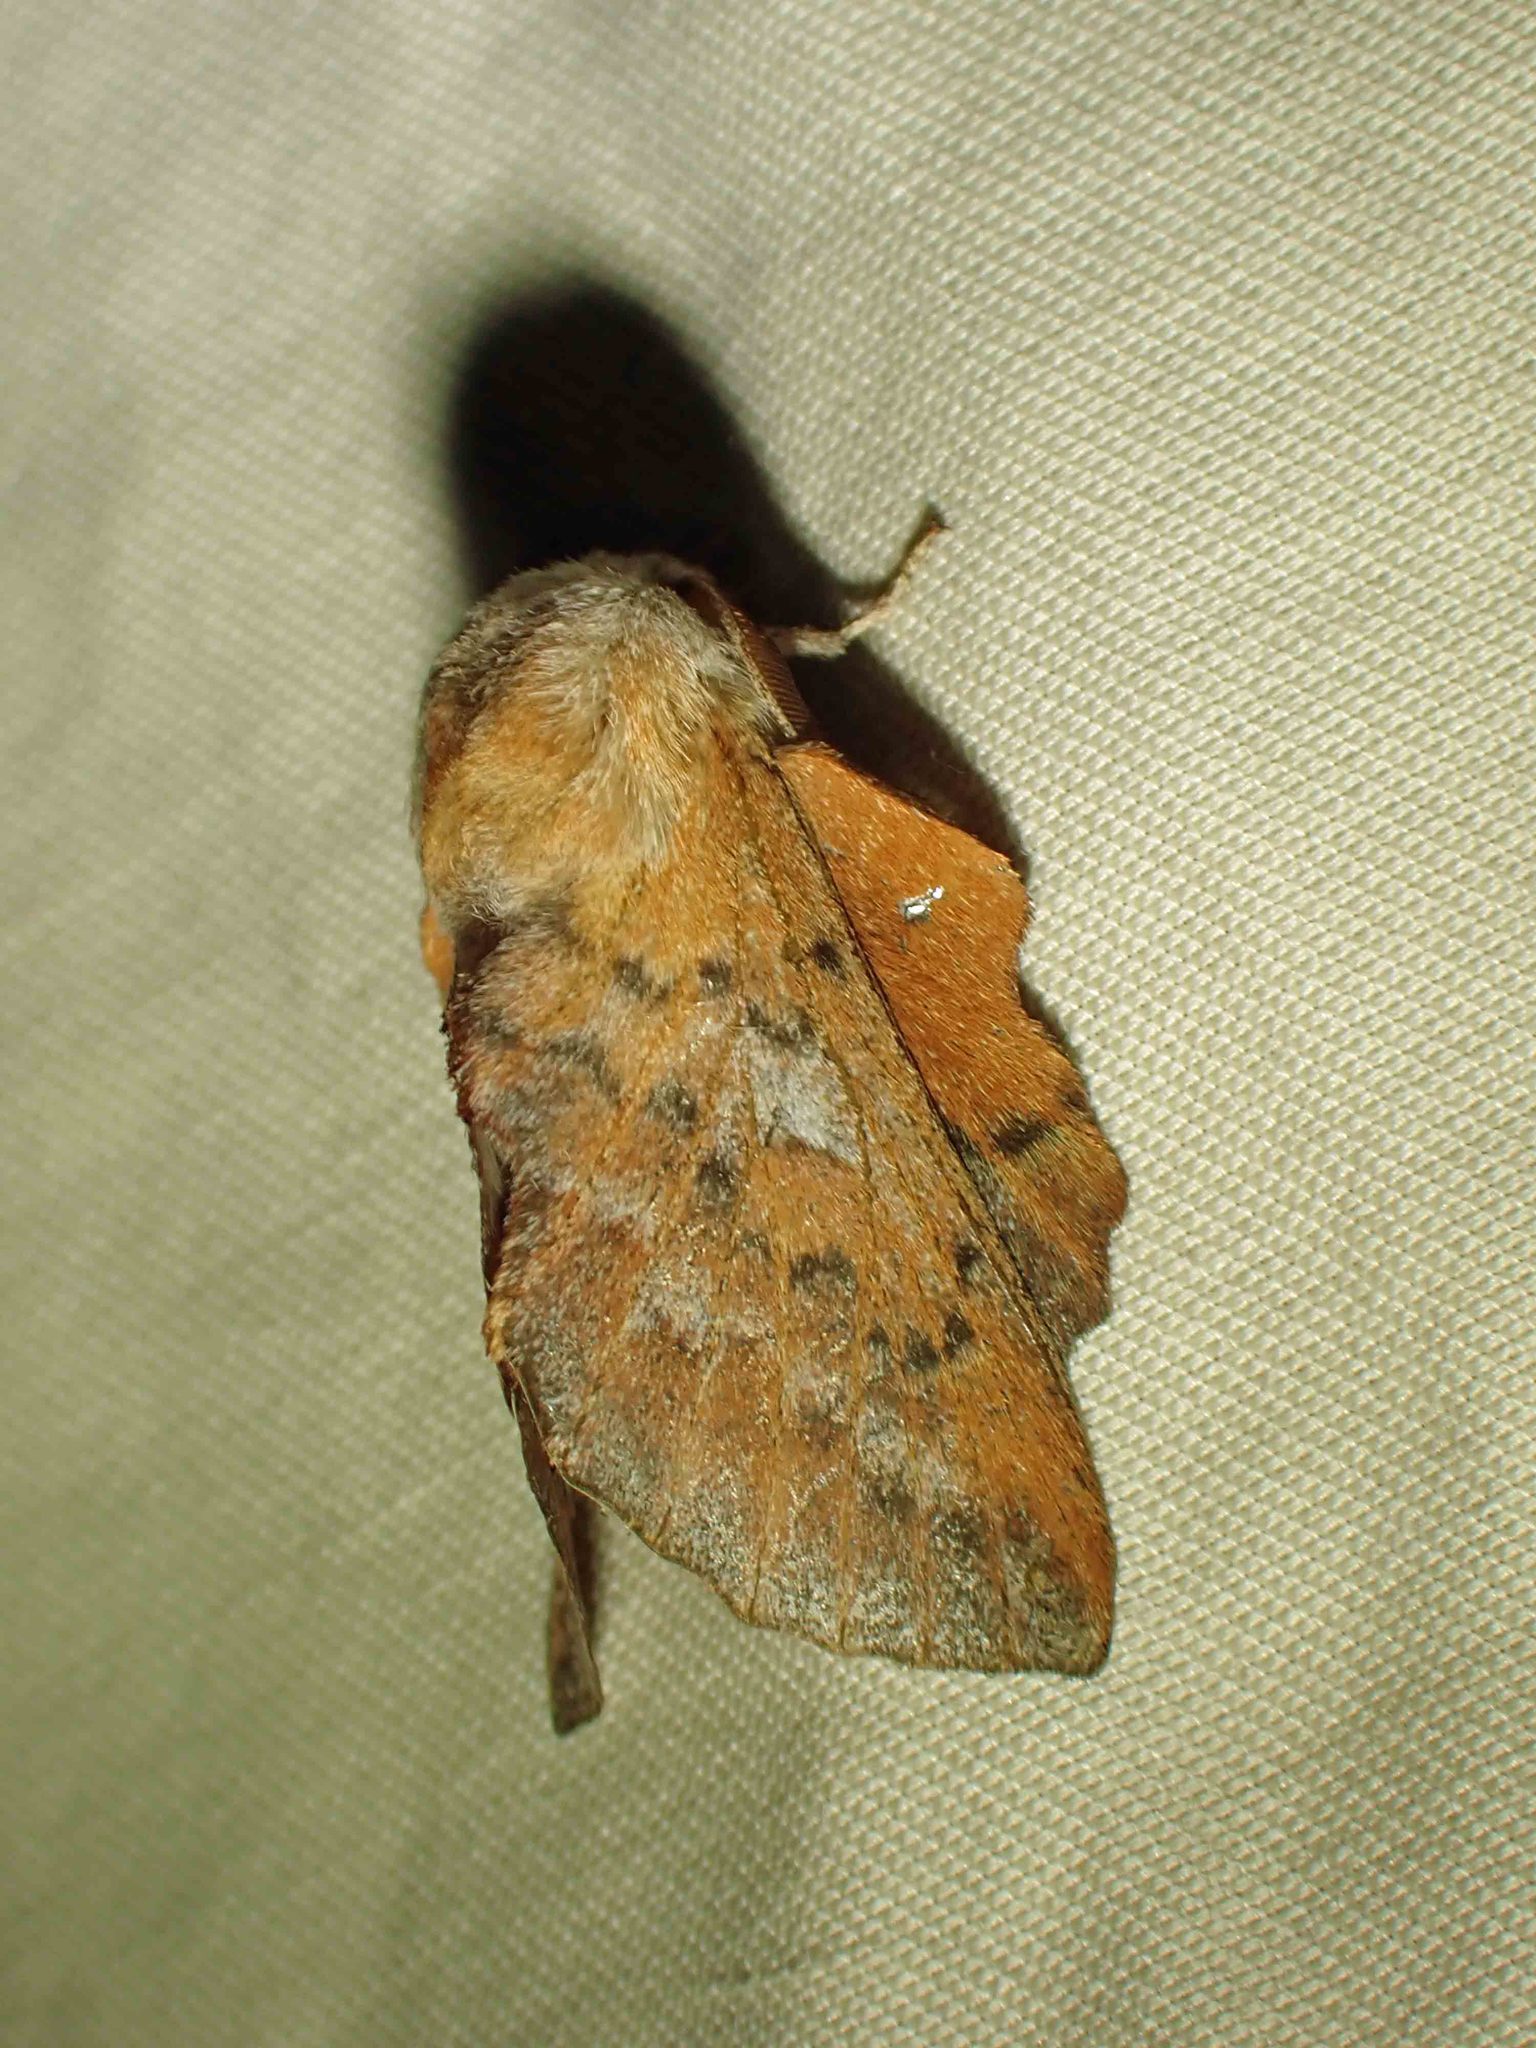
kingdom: Animalia
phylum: Arthropoda
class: Insecta
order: Lepidoptera
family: Lasiocampidae
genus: Phyllodesma
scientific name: Phyllodesma americana
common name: American lappet moth
